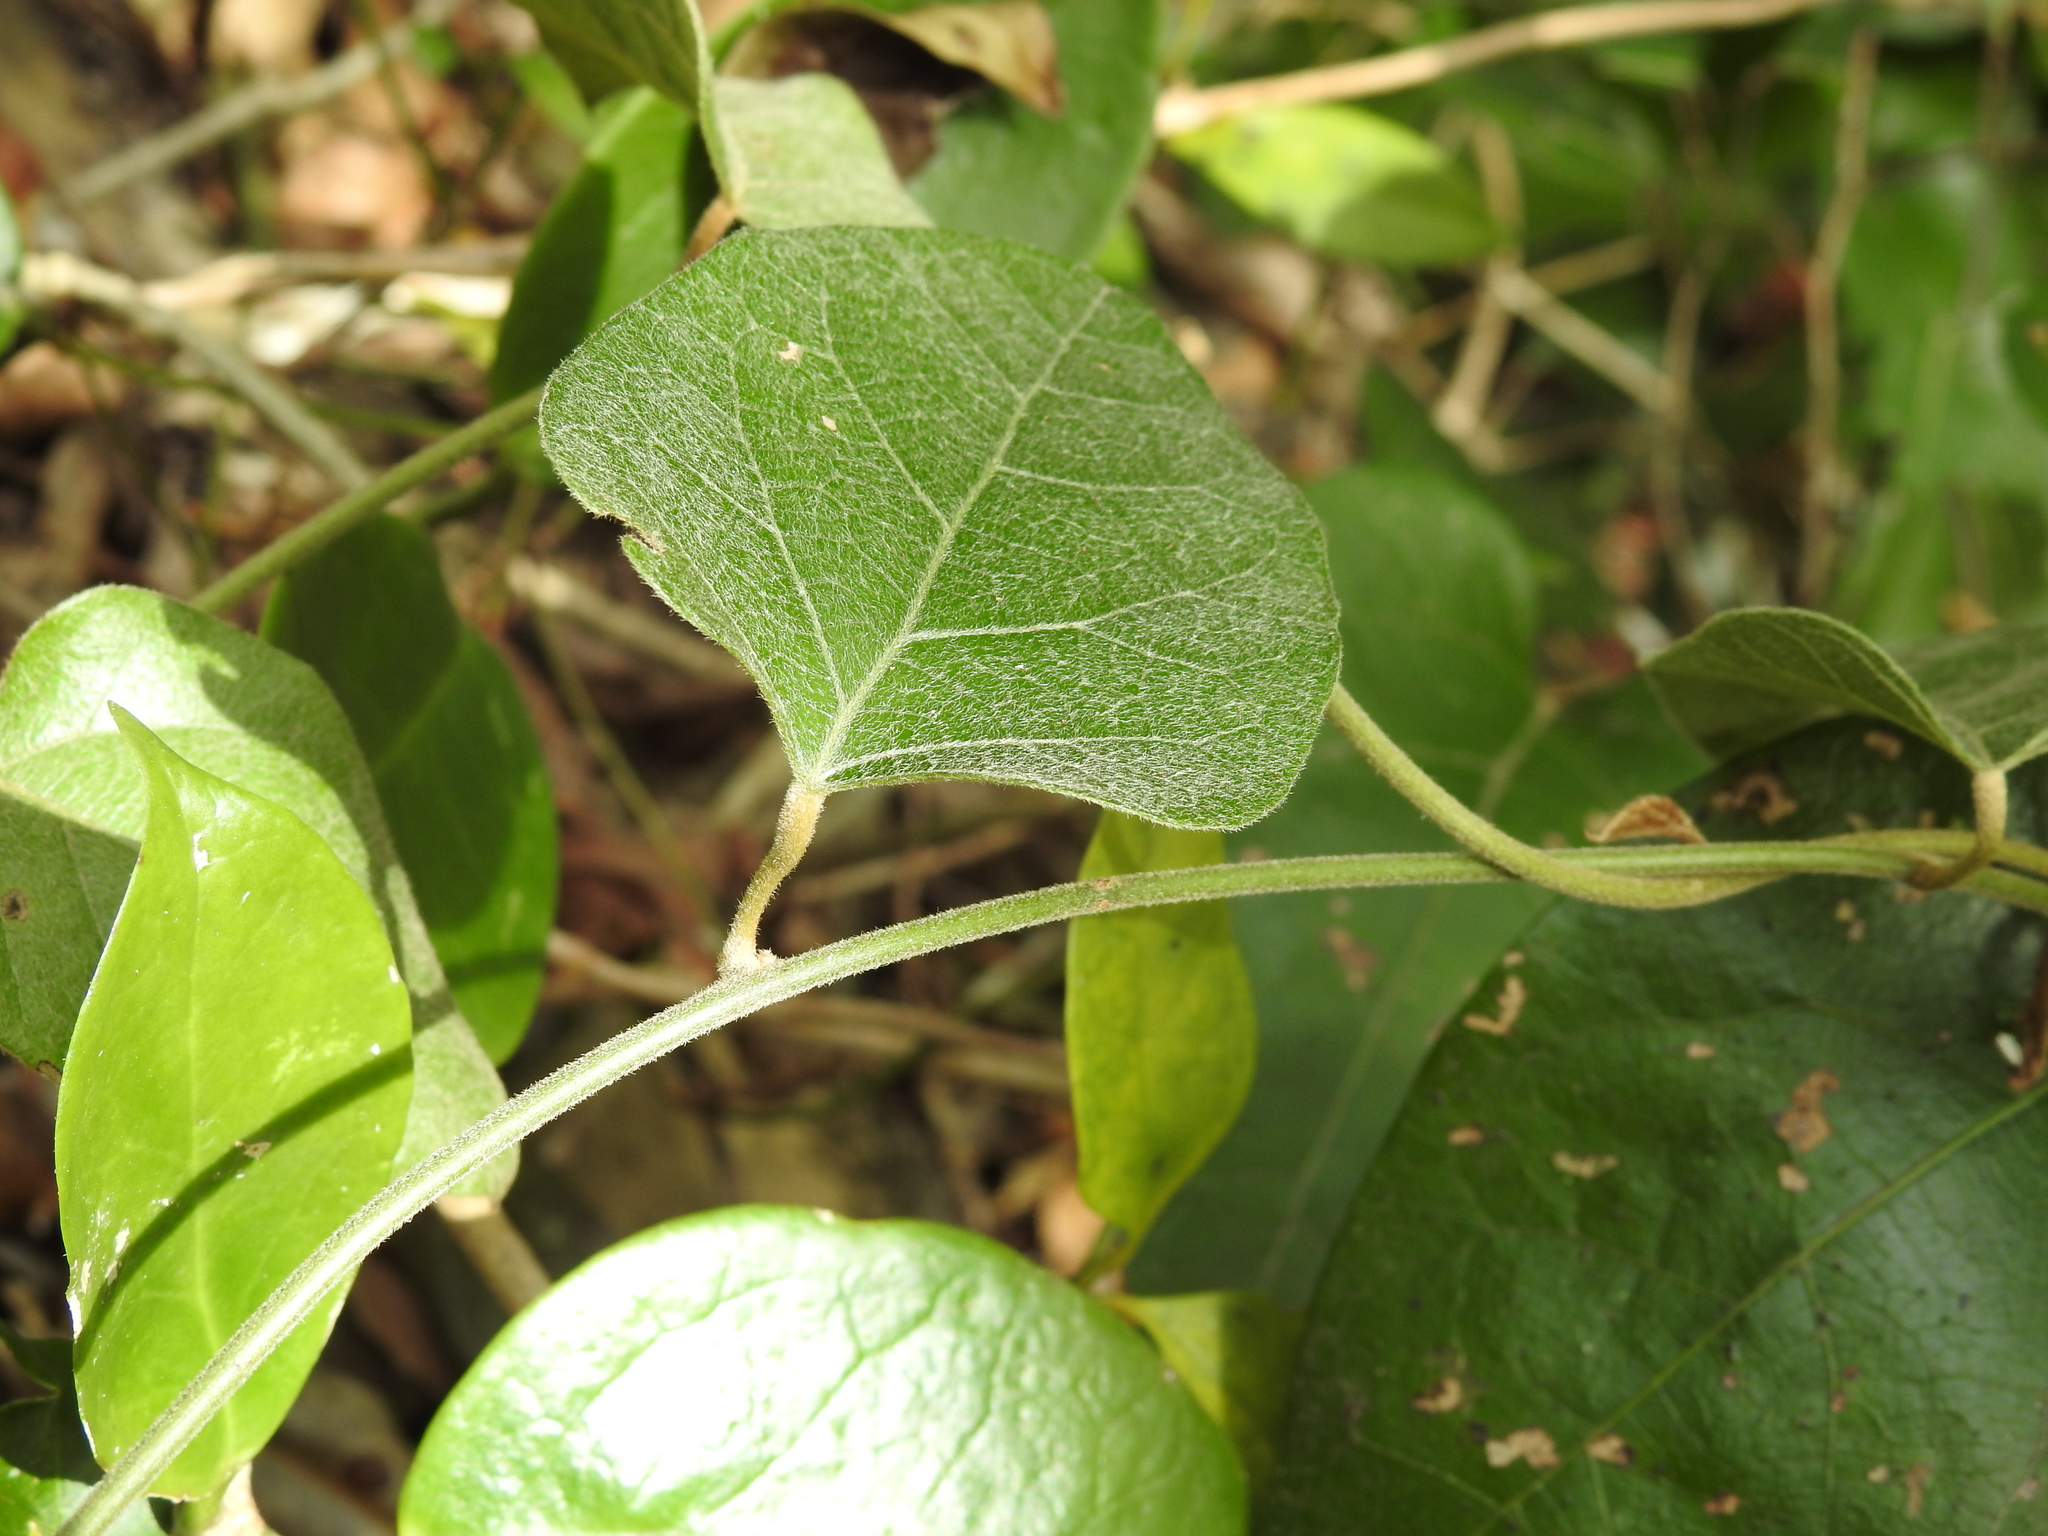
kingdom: Plantae
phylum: Tracheophyta
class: Magnoliopsida
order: Ranunculales
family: Menispermaceae
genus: Pleogyne
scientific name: Pleogyne australis
